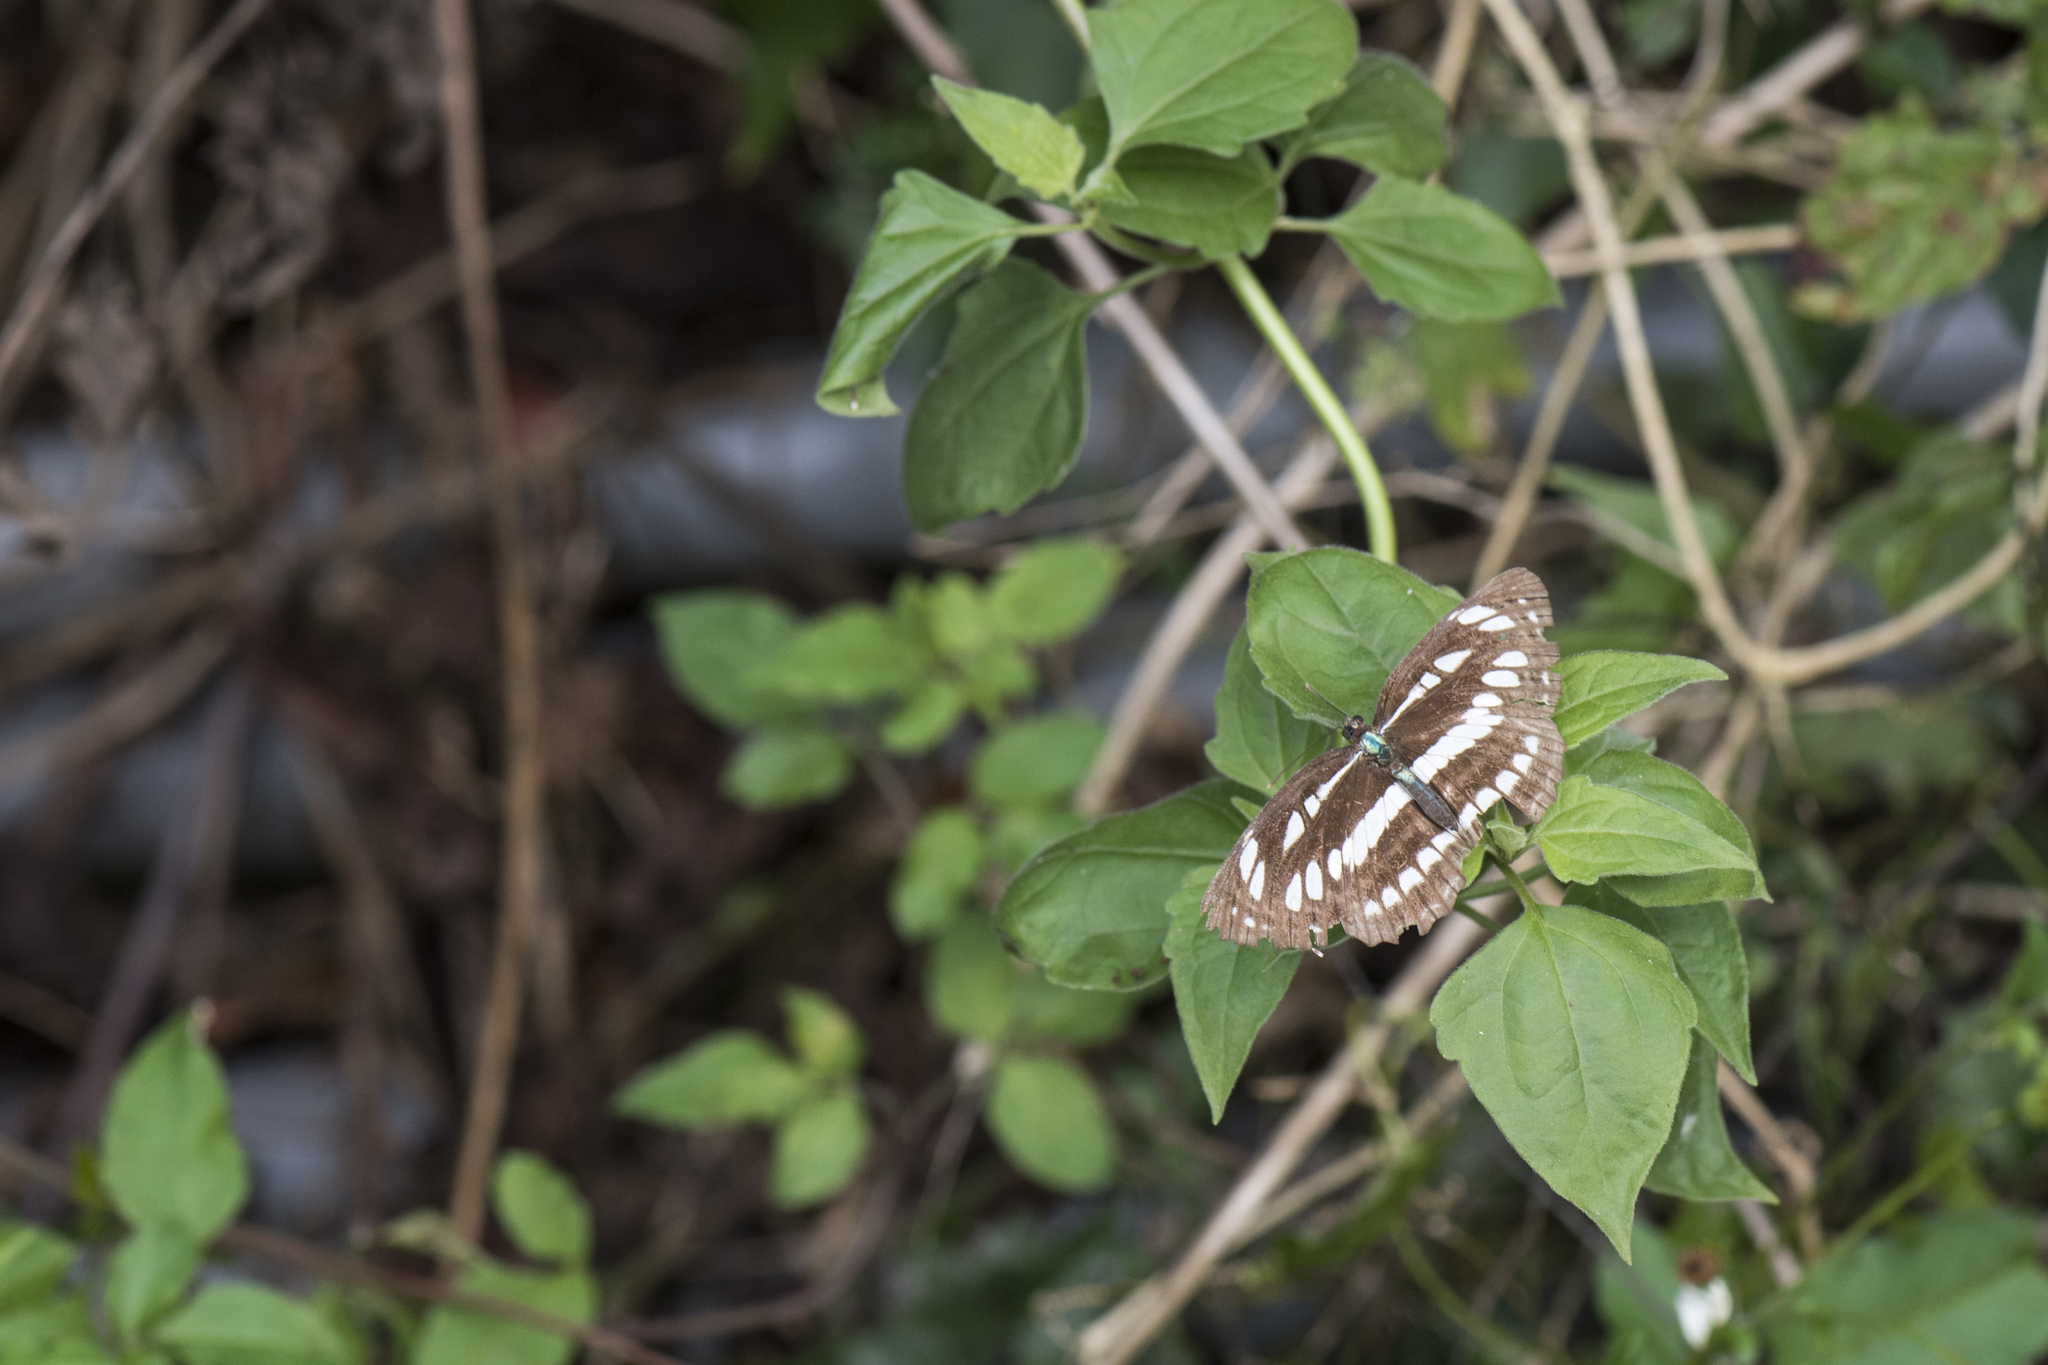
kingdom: Animalia
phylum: Arthropoda
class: Insecta
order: Lepidoptera
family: Nymphalidae
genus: Neptis
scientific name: Neptis hylas
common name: Common sailer
